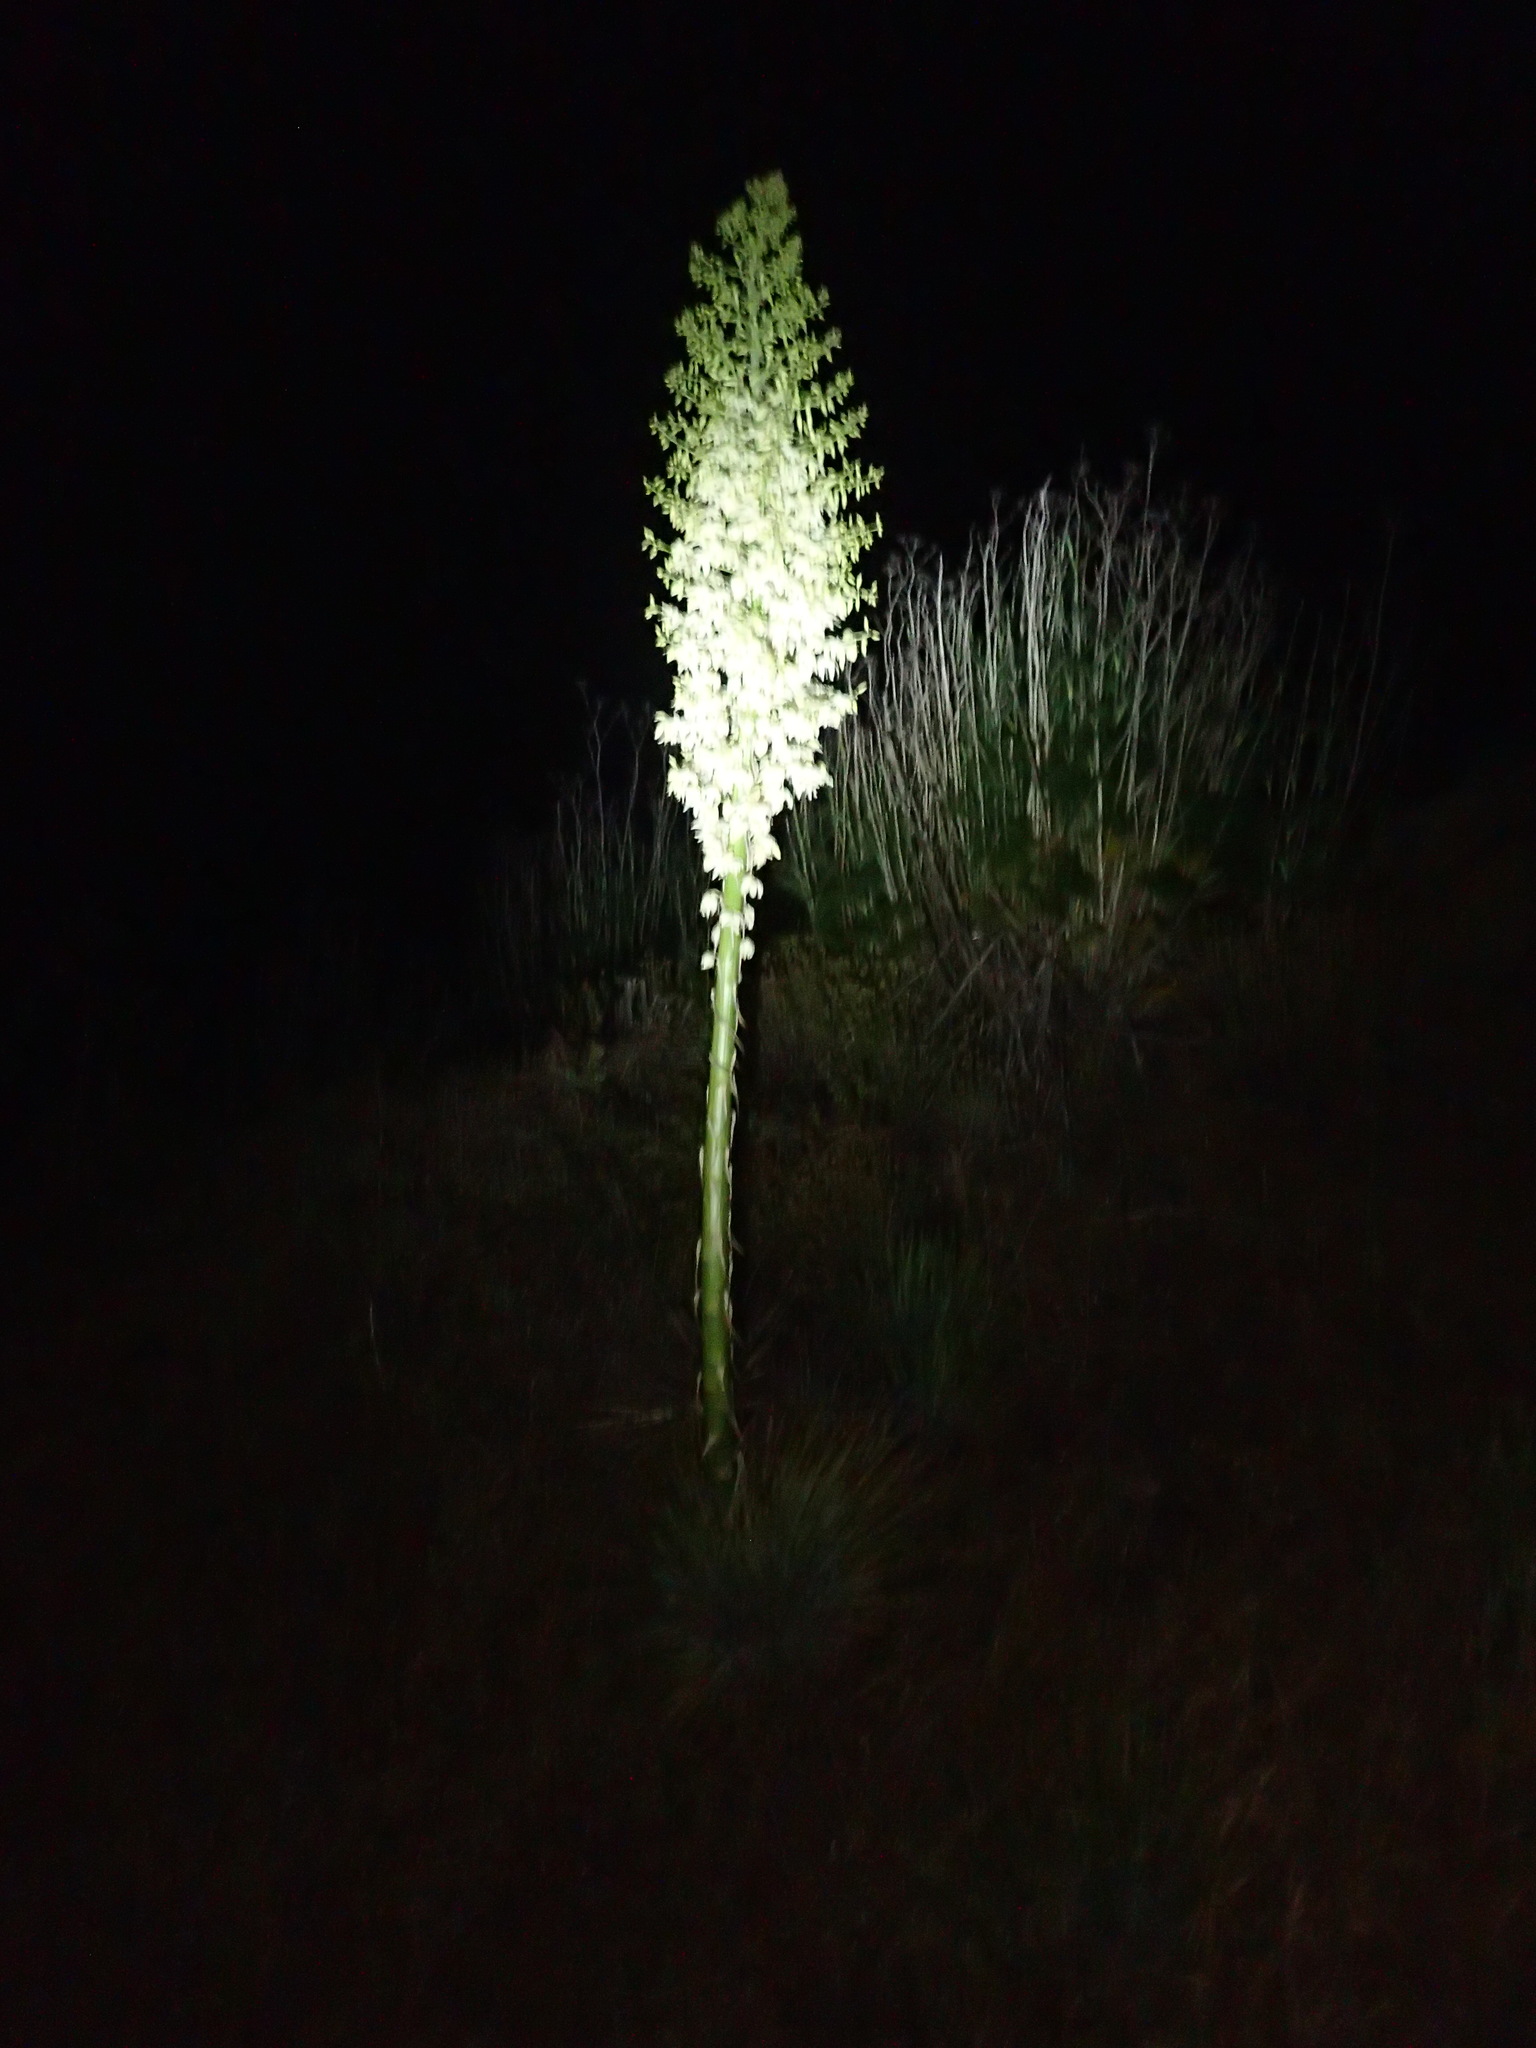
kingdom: Plantae
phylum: Tracheophyta
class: Liliopsida
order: Asparagales
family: Asparagaceae
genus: Hesperoyucca
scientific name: Hesperoyucca whipplei
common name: Our lord's-candle
